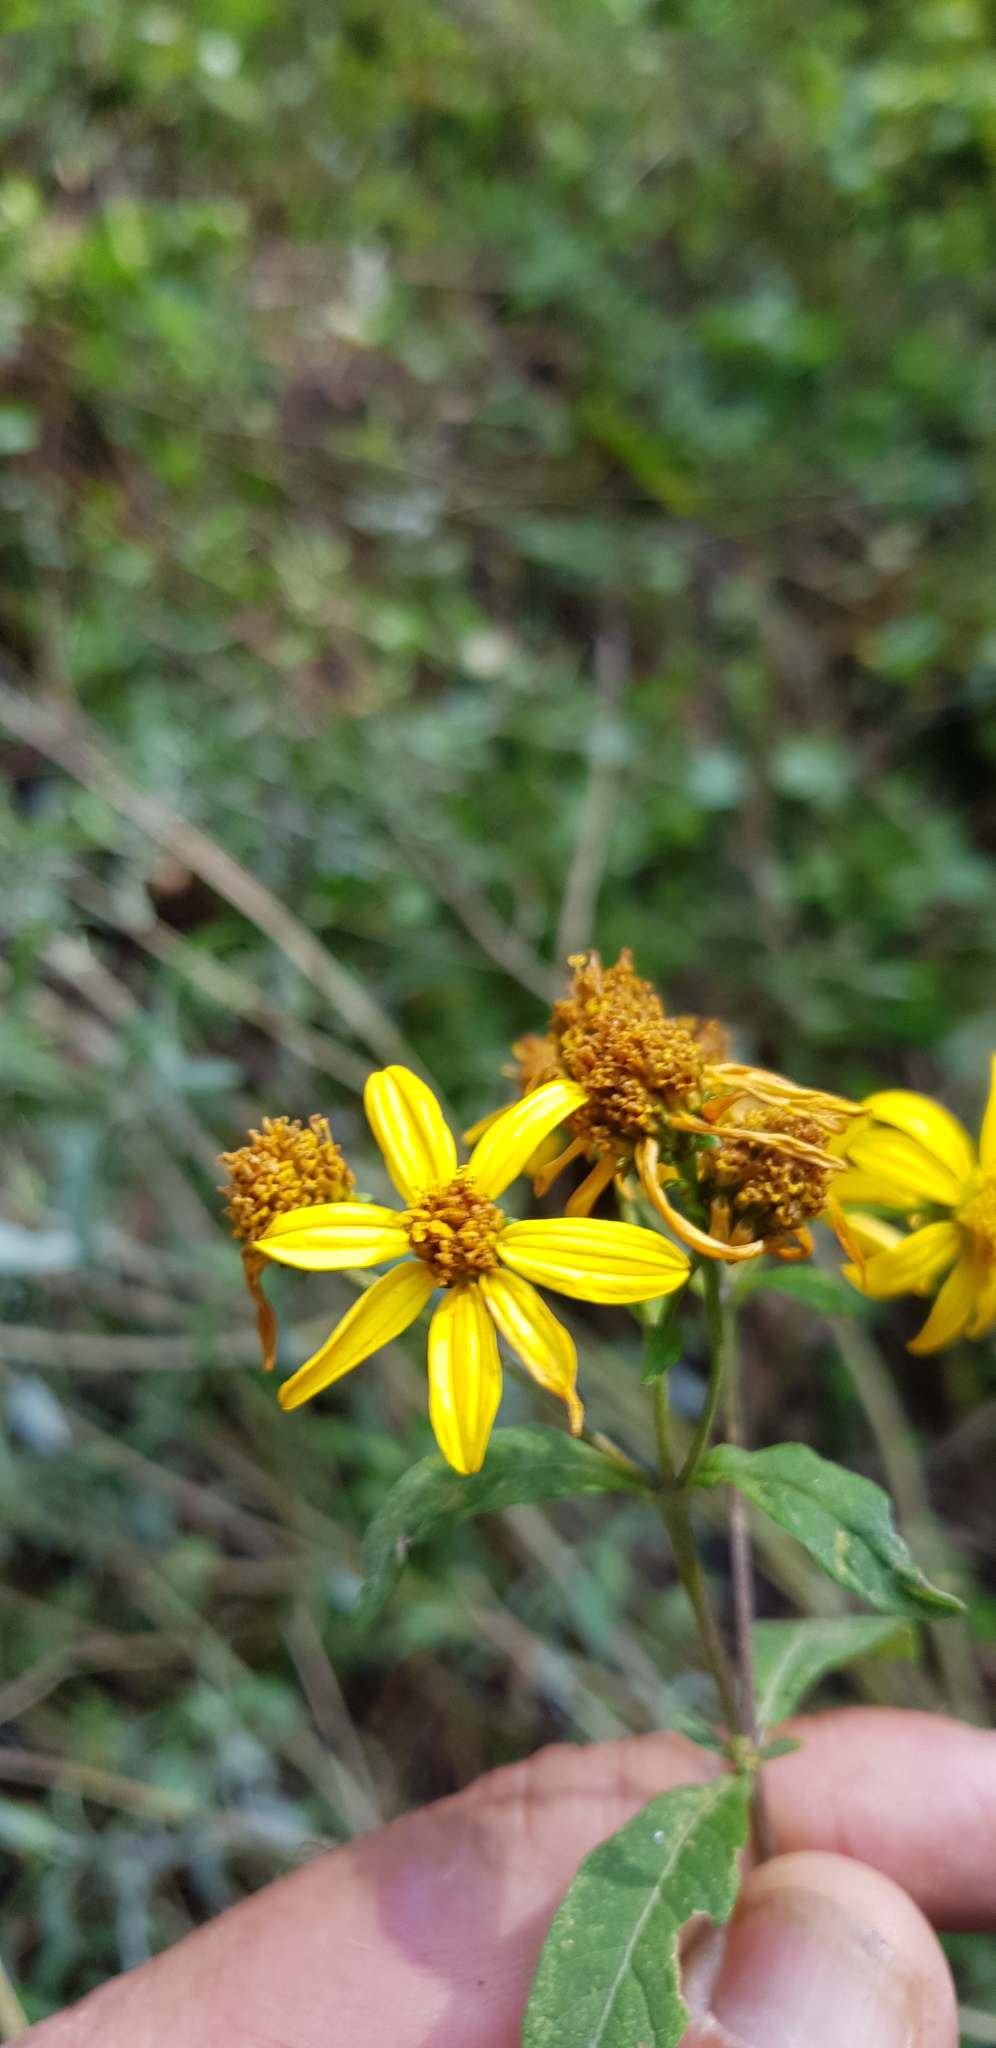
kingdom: Plantae
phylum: Tracheophyta
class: Magnoliopsida
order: Asterales
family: Asteraceae
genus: Verbesina
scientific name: Verbesina liebmannii
